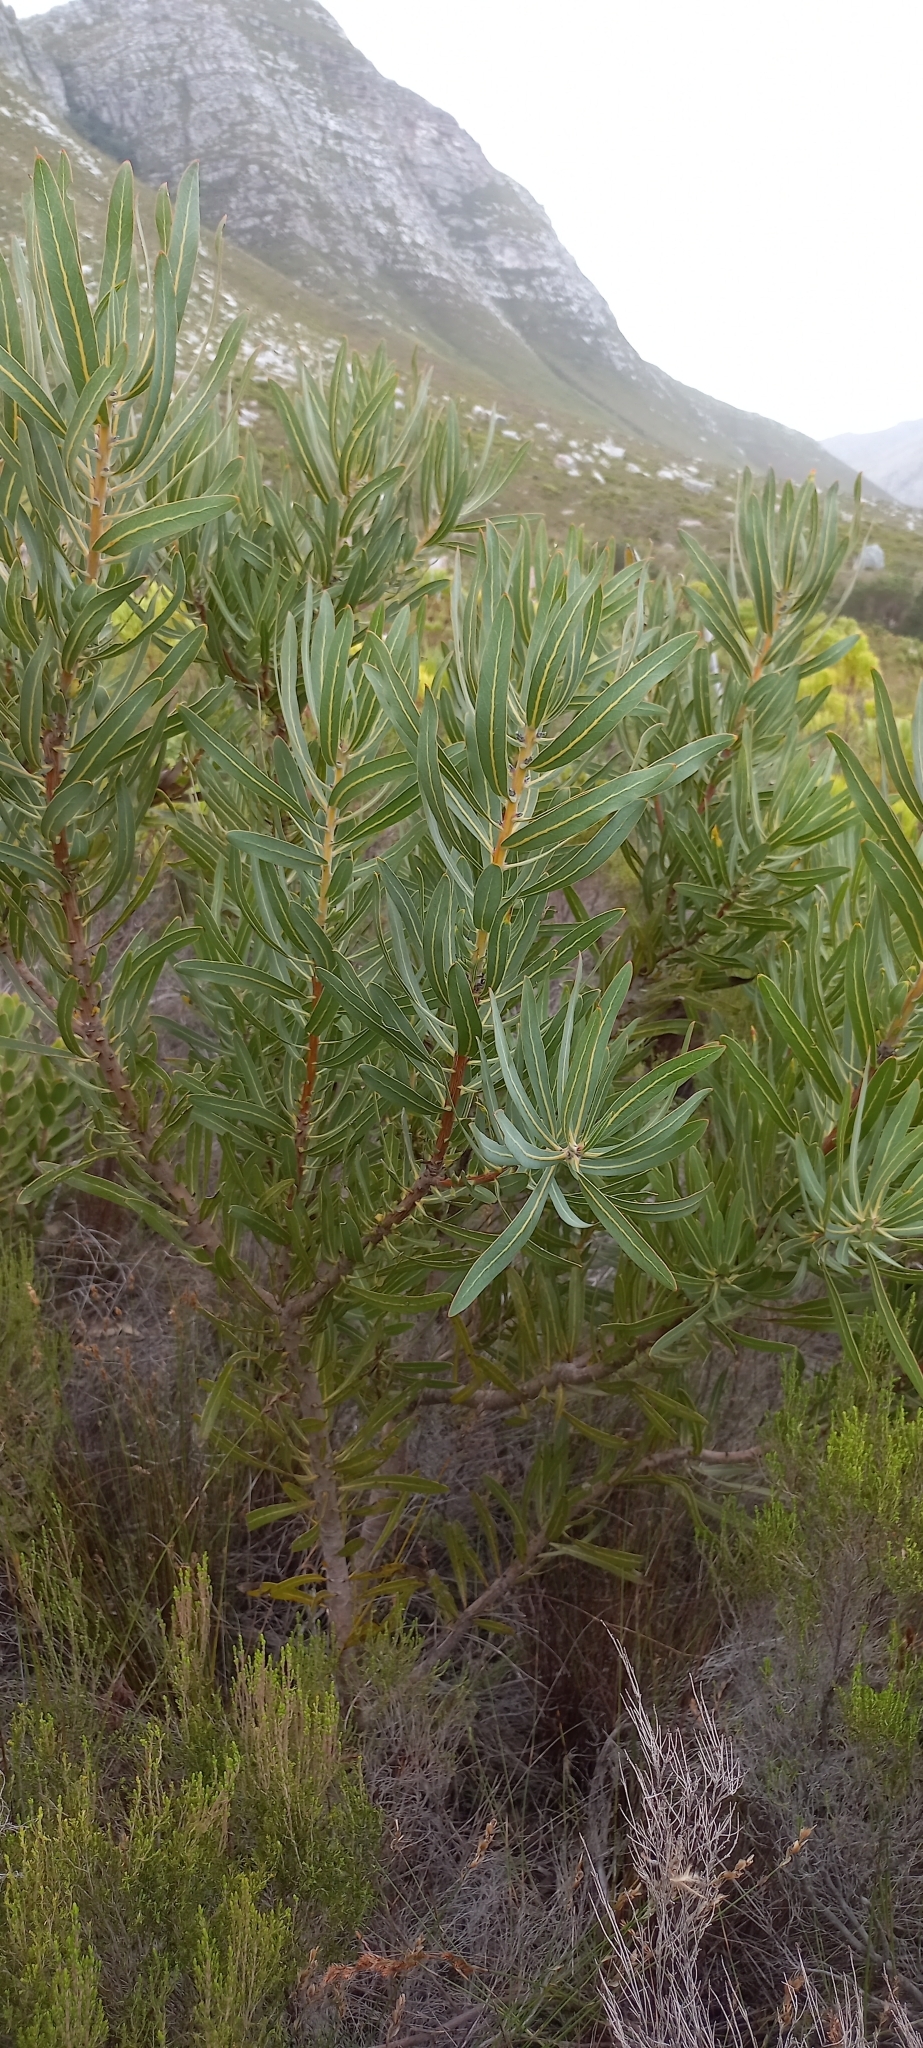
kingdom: Plantae
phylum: Tracheophyta
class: Magnoliopsida
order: Proteales
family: Proteaceae
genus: Protea
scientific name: Protea
